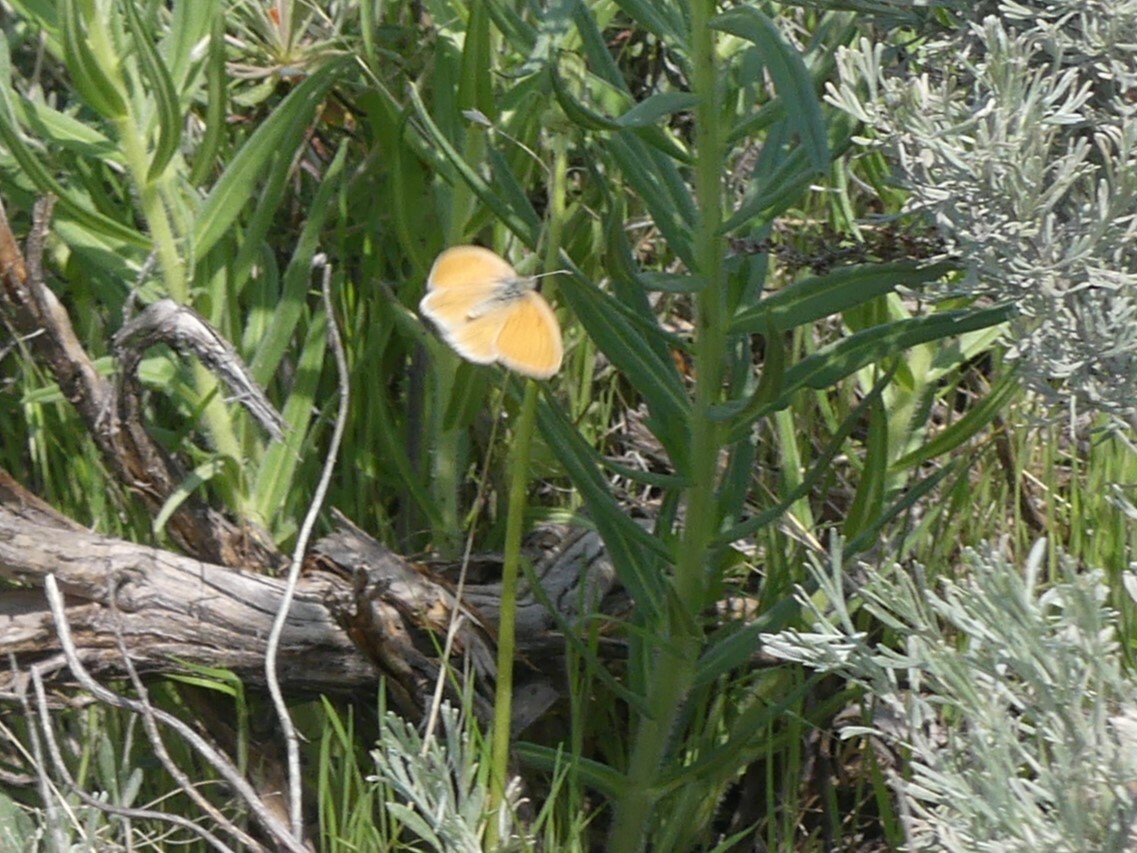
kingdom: Animalia
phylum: Arthropoda
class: Insecta
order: Lepidoptera
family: Nymphalidae
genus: Coenonympha
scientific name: Coenonympha california
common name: Common ringlet
